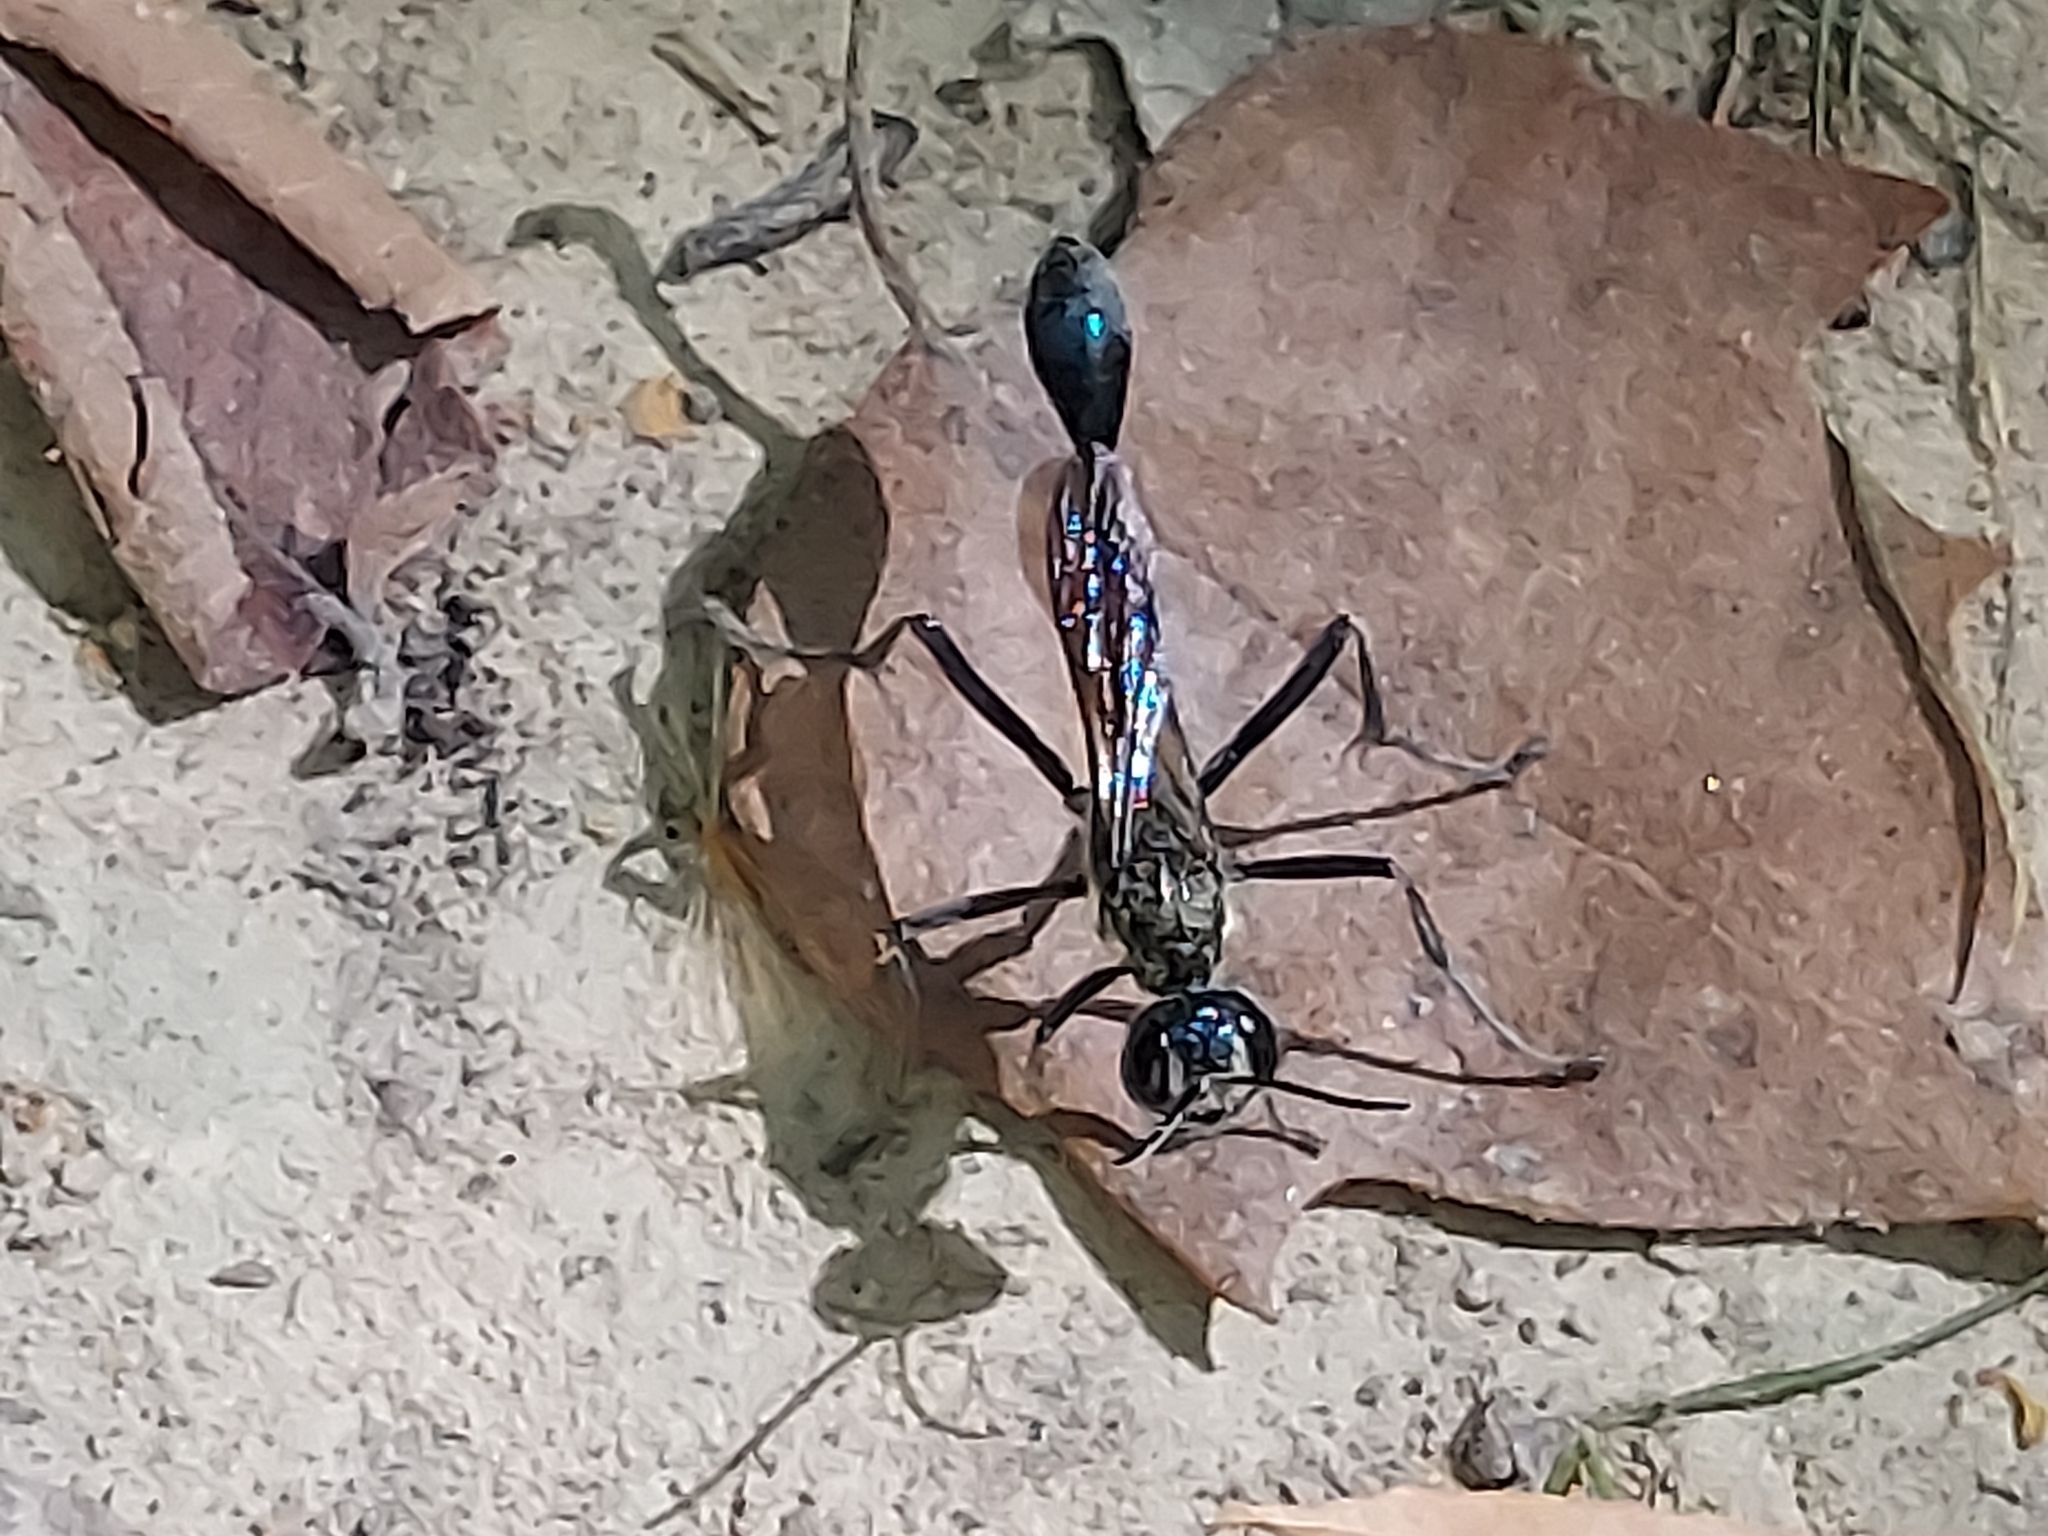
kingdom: Animalia
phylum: Arthropoda
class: Insecta
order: Hymenoptera
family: Sphecidae
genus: Eremnophila
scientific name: Eremnophila aureonotata
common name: Gold-marked thread-waisted wasp
